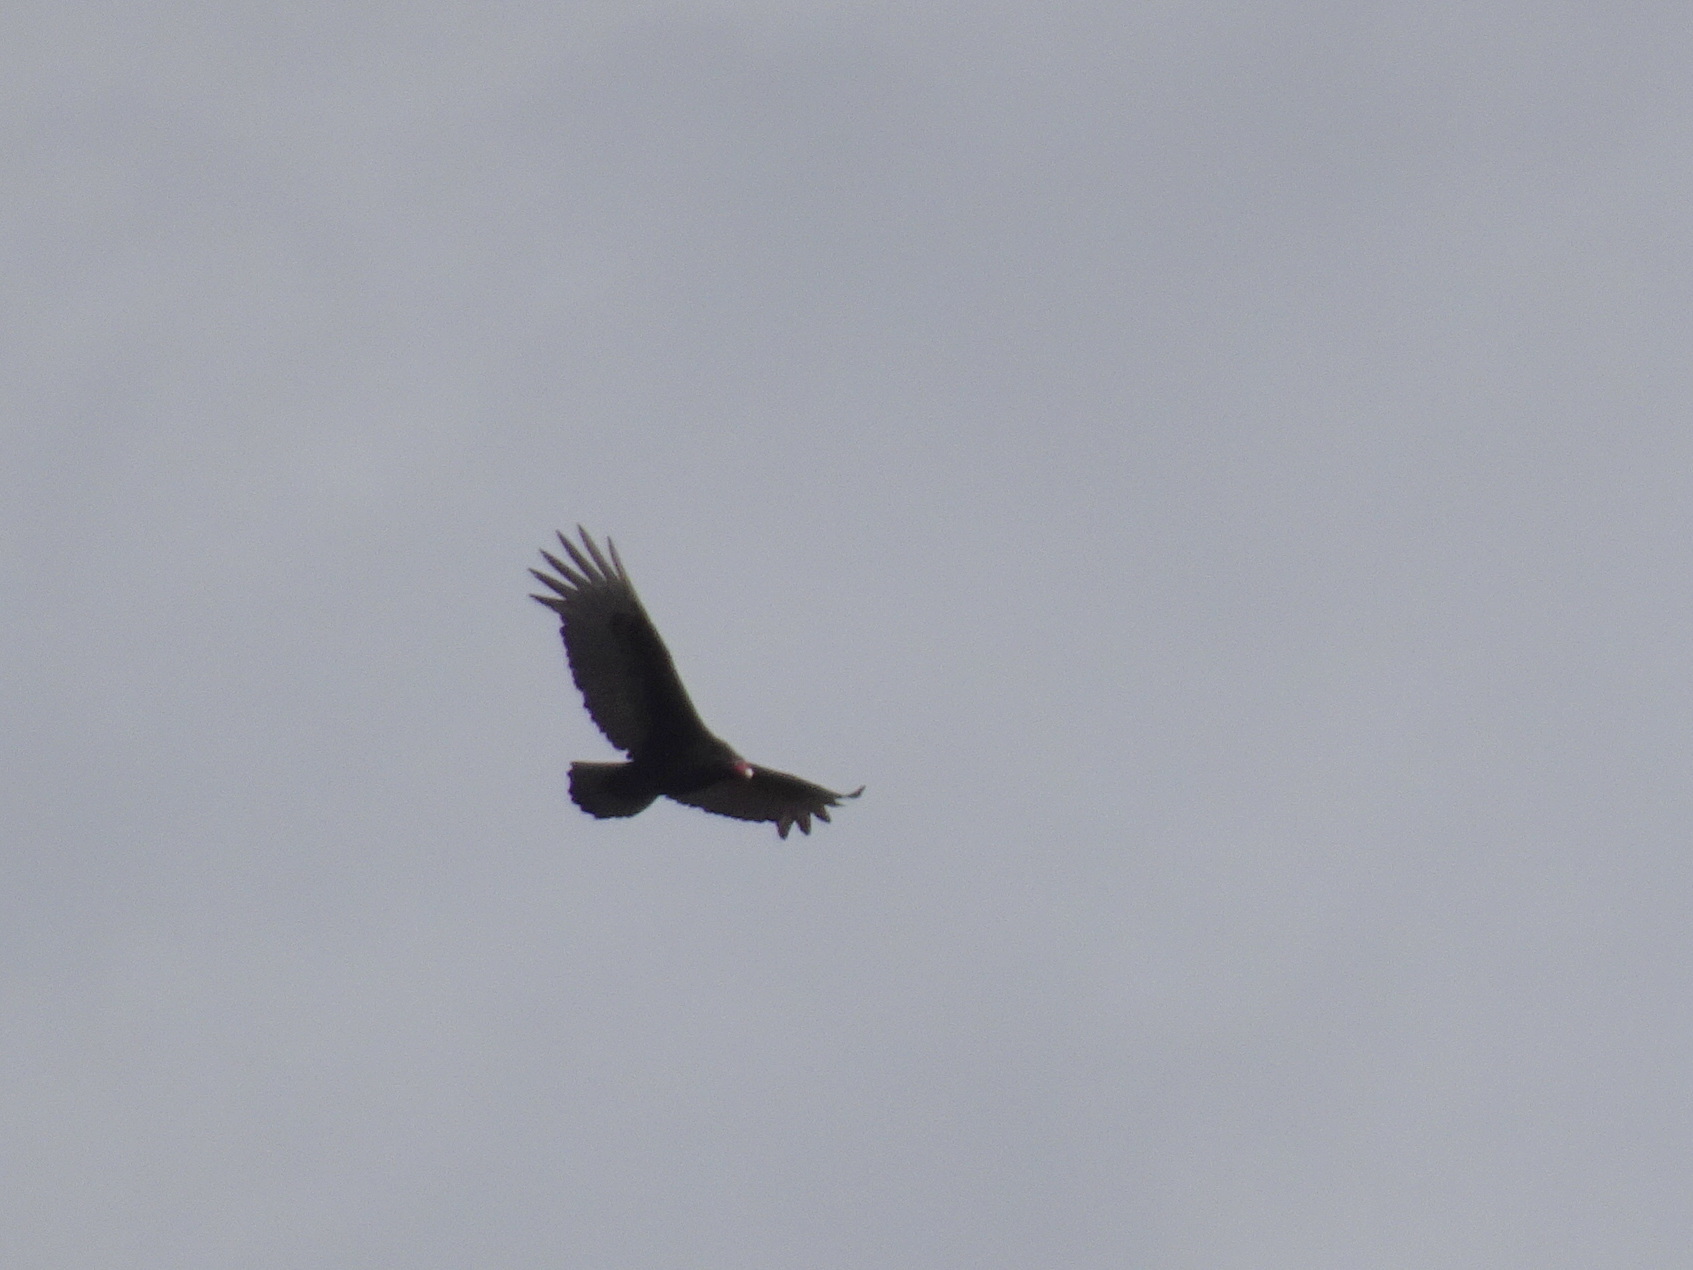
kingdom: Animalia
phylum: Chordata
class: Aves
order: Accipitriformes
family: Cathartidae
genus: Cathartes
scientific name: Cathartes aura
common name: Turkey vulture
